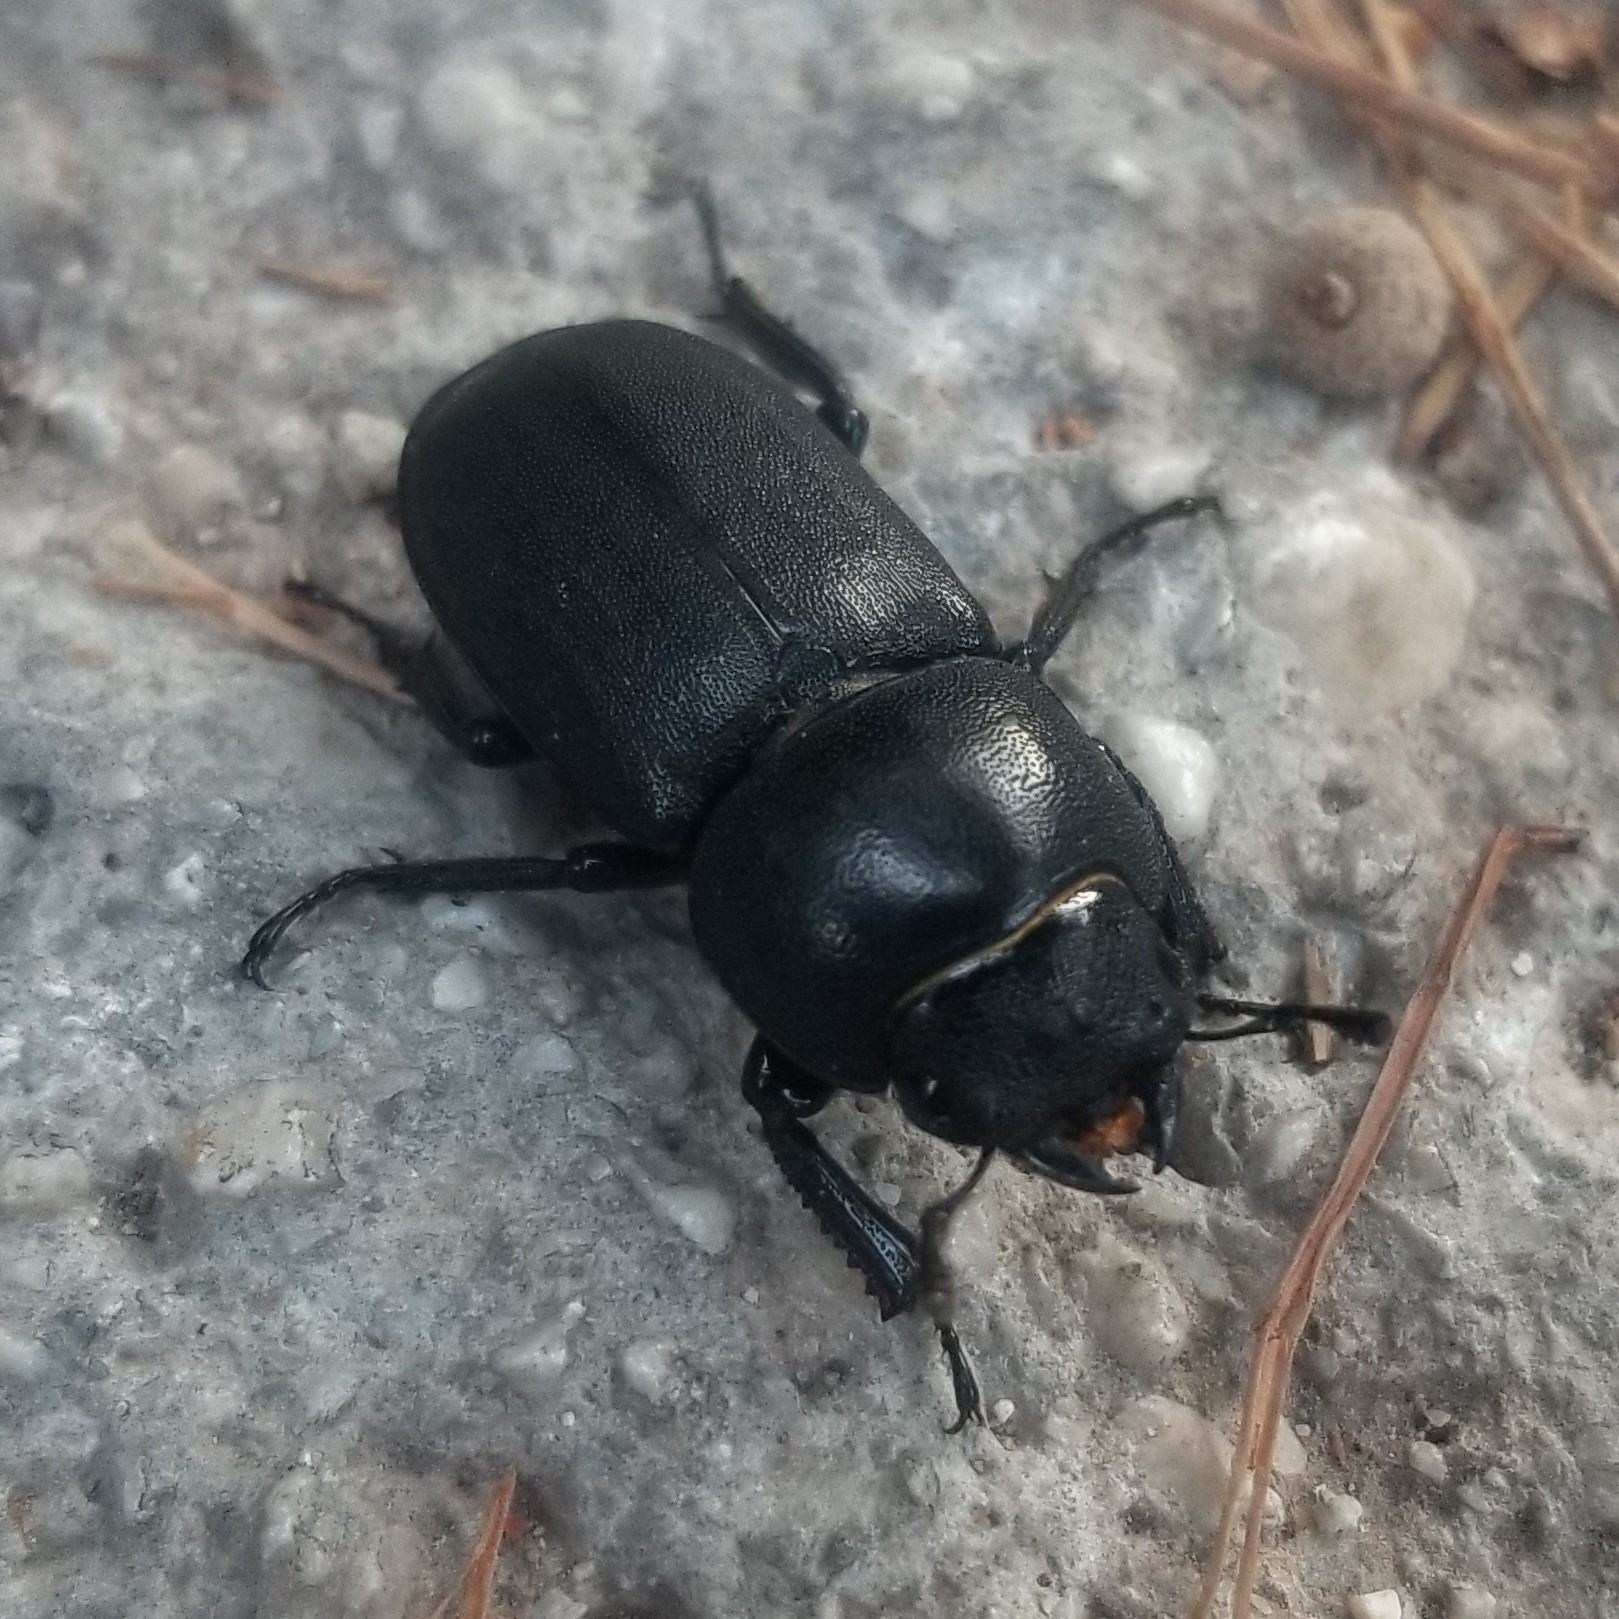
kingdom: Animalia
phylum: Arthropoda
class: Insecta
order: Coleoptera
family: Lucanidae
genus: Dorcus
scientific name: Dorcus parallelipipedus
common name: Lesser stag beetle
